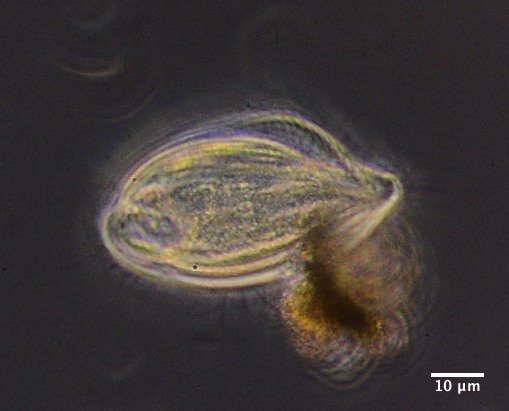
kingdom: Chromista
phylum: Ciliophora
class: Spirotrichea
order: Phacodiniida
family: Phacodiniidae
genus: Phacodinium
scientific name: Phacodinium metchnikoffi
